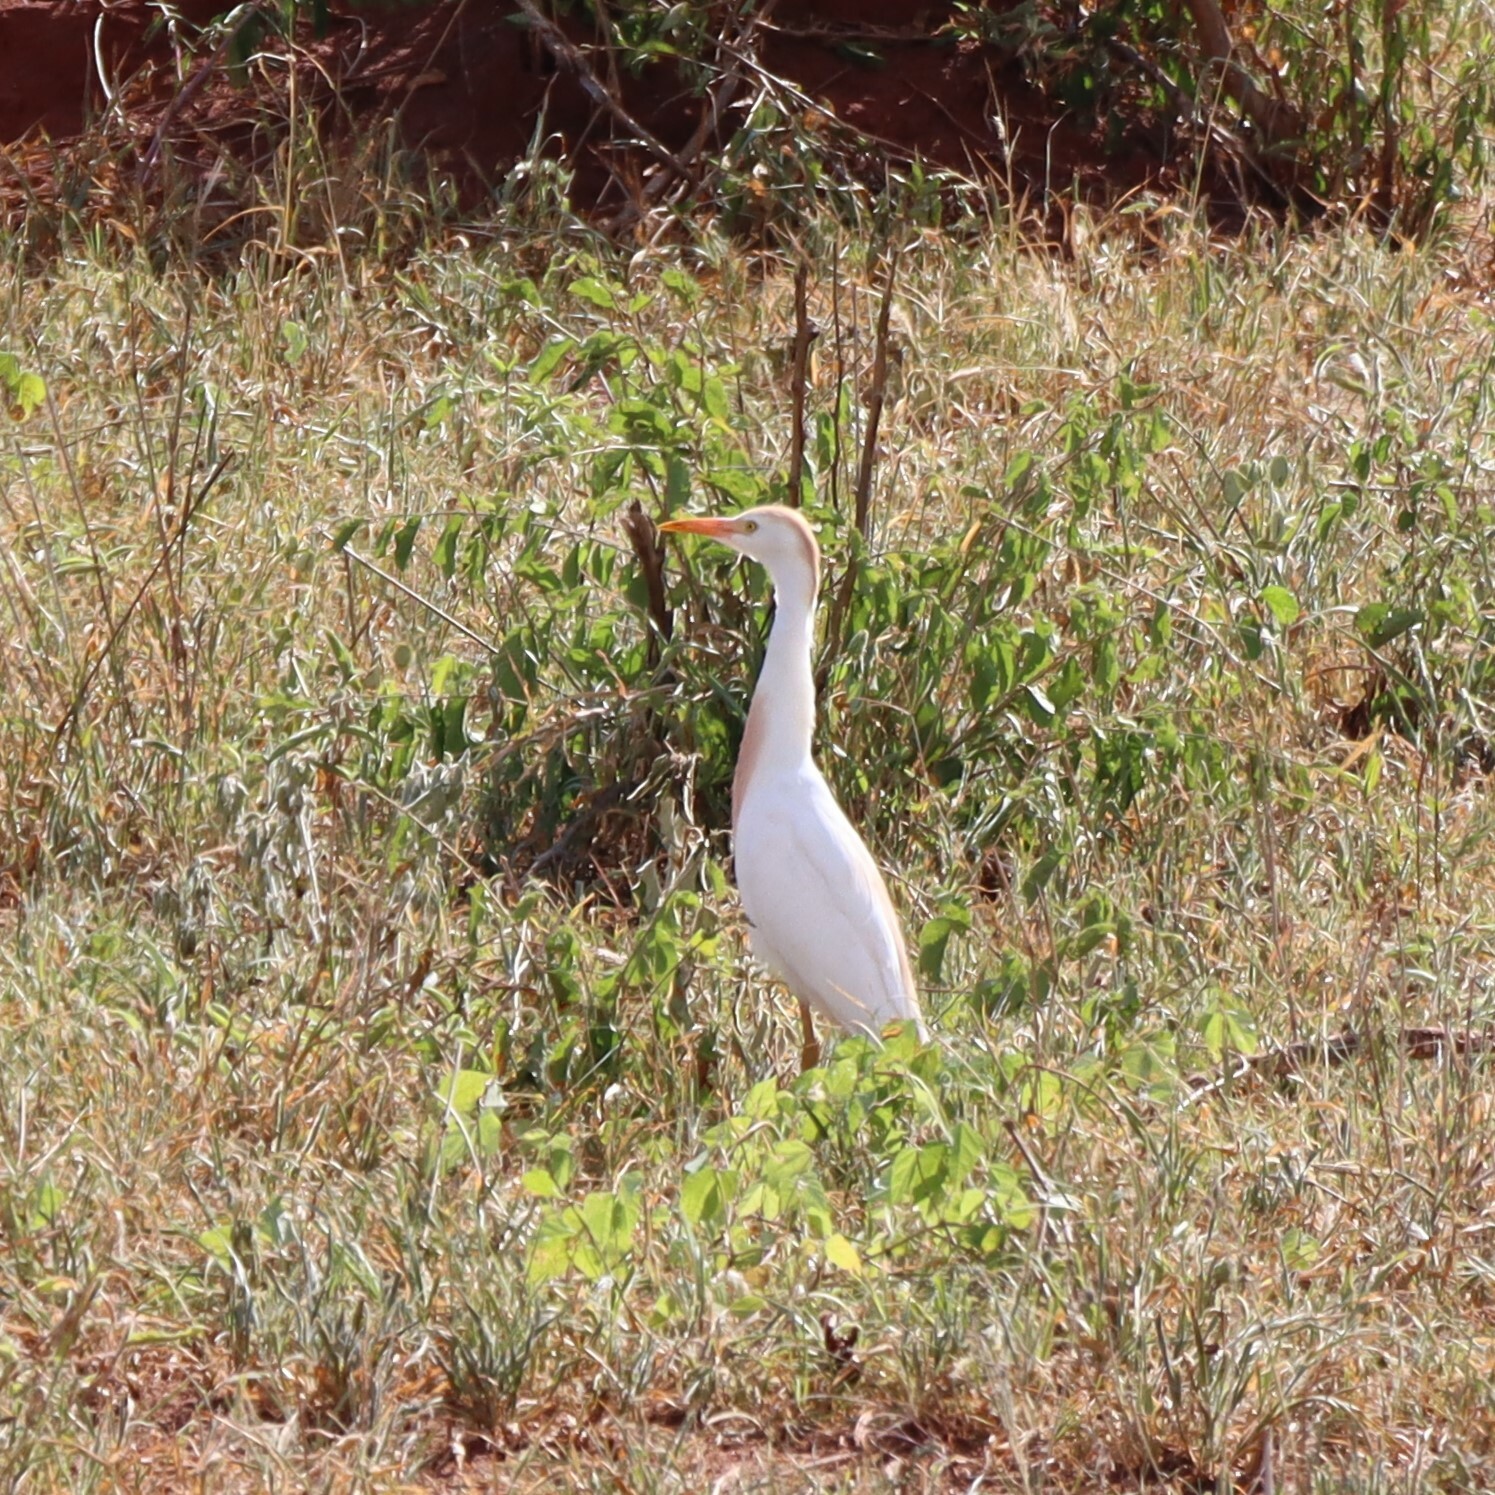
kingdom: Animalia
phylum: Chordata
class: Aves
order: Pelecaniformes
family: Ardeidae
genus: Bubulcus
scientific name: Bubulcus ibis
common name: Cattle egret
